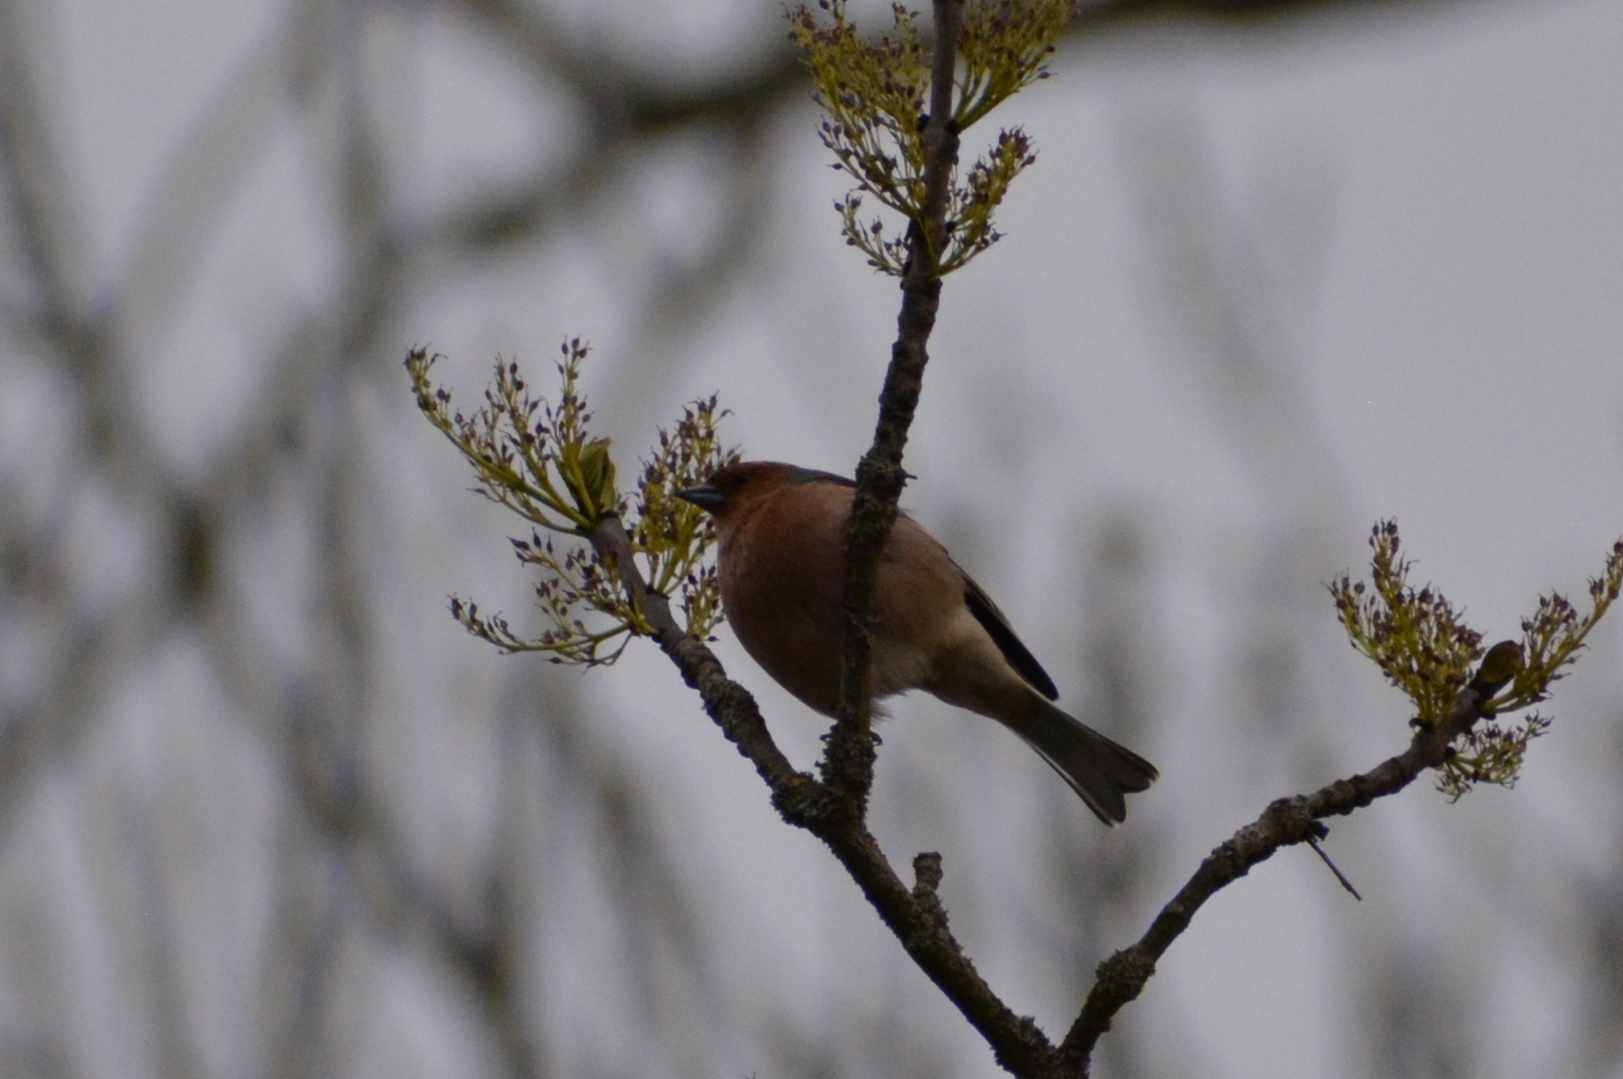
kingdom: Animalia
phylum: Chordata
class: Aves
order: Passeriformes
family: Fringillidae
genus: Fringilla
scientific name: Fringilla coelebs
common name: Common chaffinch
